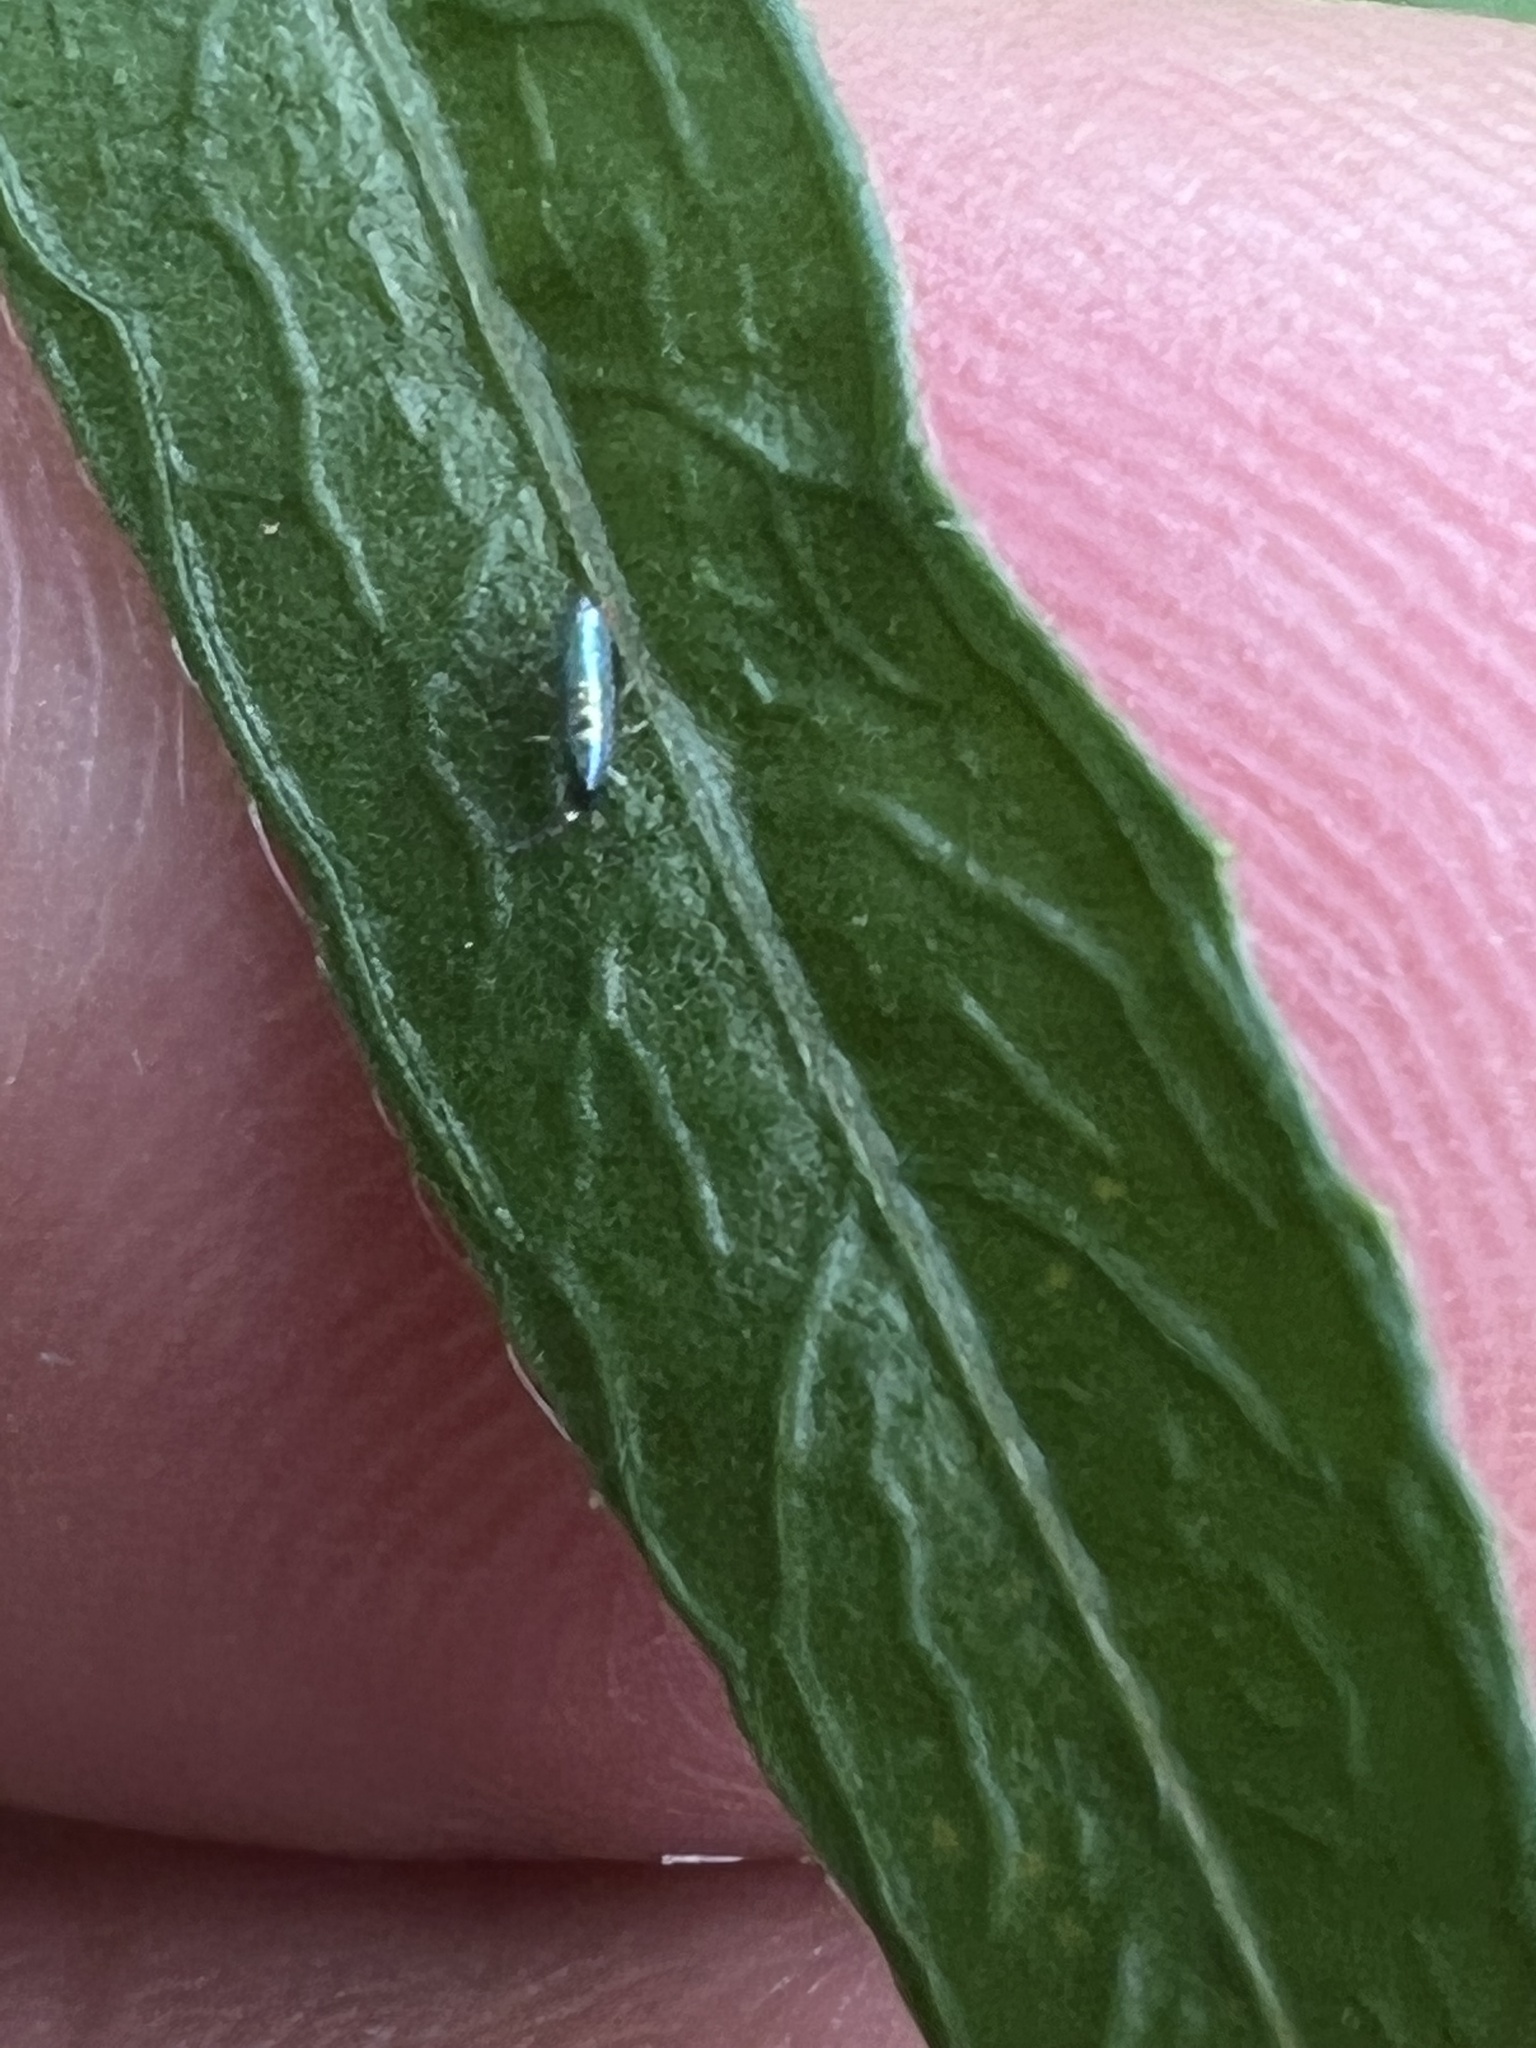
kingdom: Animalia
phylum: Arthropoda
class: Collembola
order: Entomobryomorpha
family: Entomobryidae
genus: Lepidocyrtus
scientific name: Lepidocyrtus paradoxus
